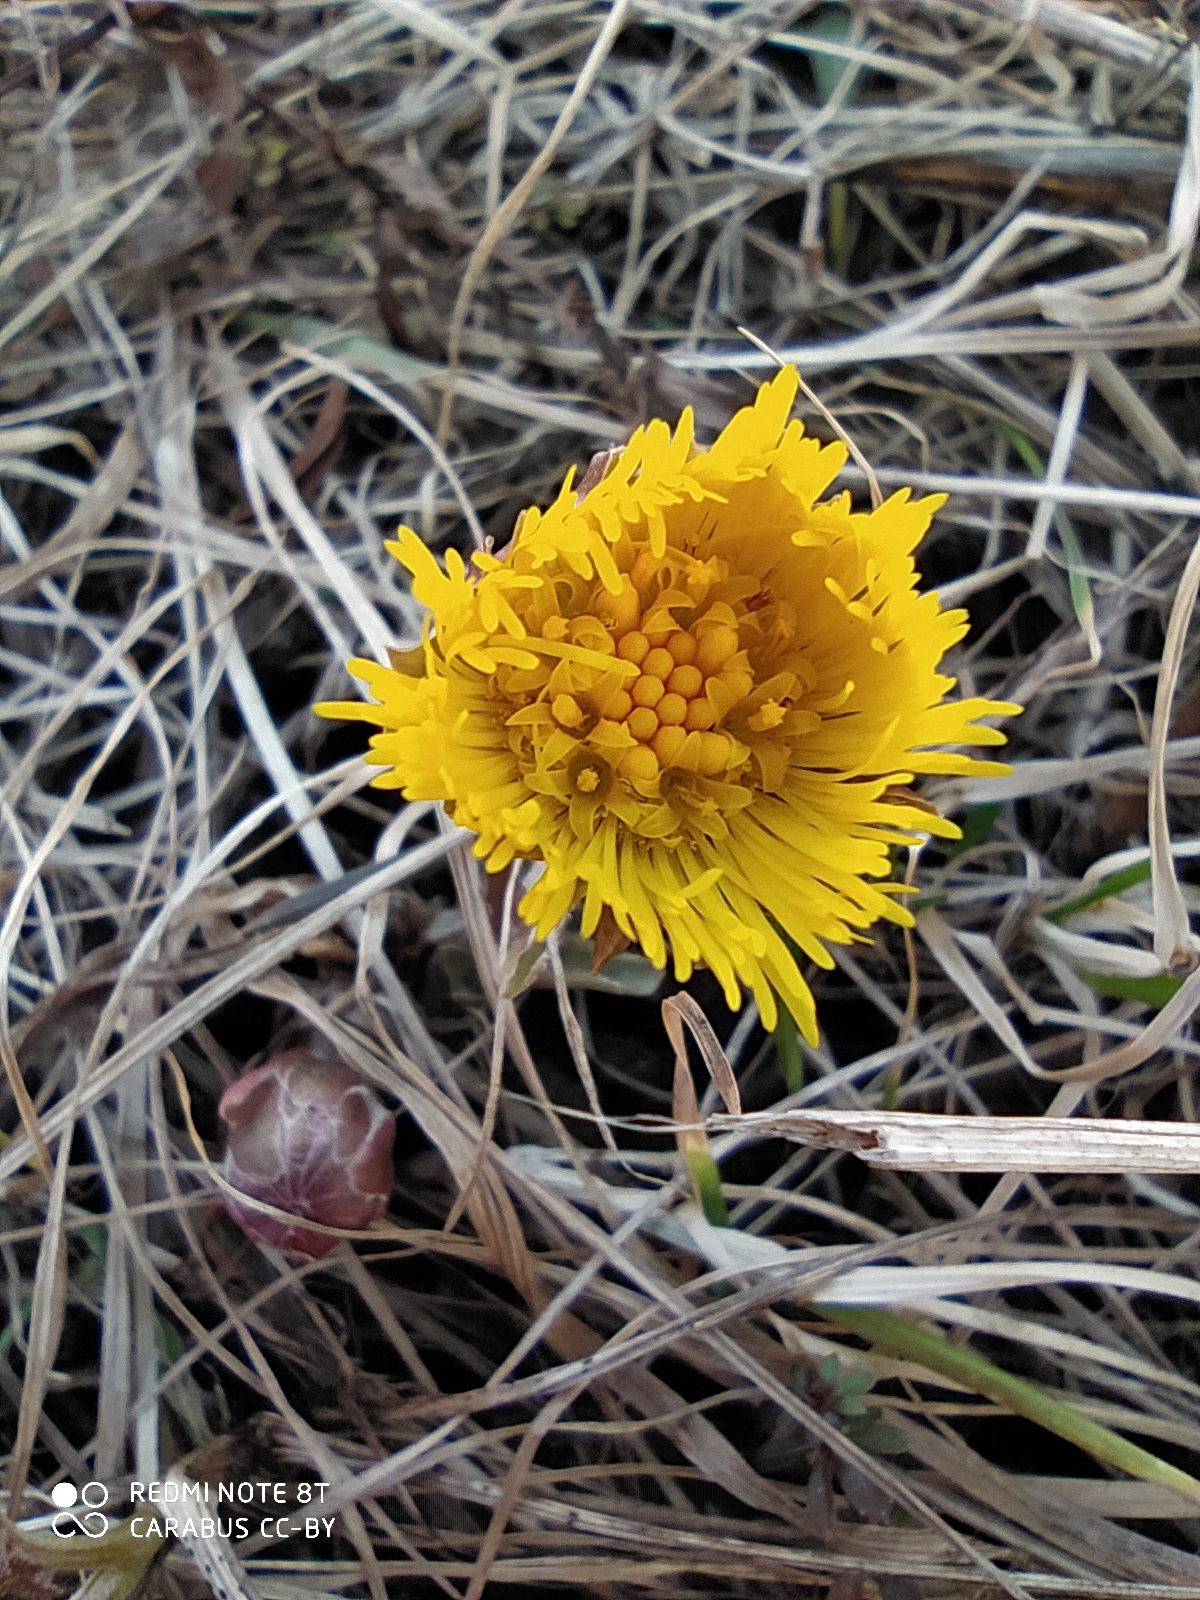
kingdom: Plantae
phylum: Tracheophyta
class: Magnoliopsida
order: Asterales
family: Asteraceae
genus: Tussilago
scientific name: Tussilago farfara
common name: Coltsfoot
